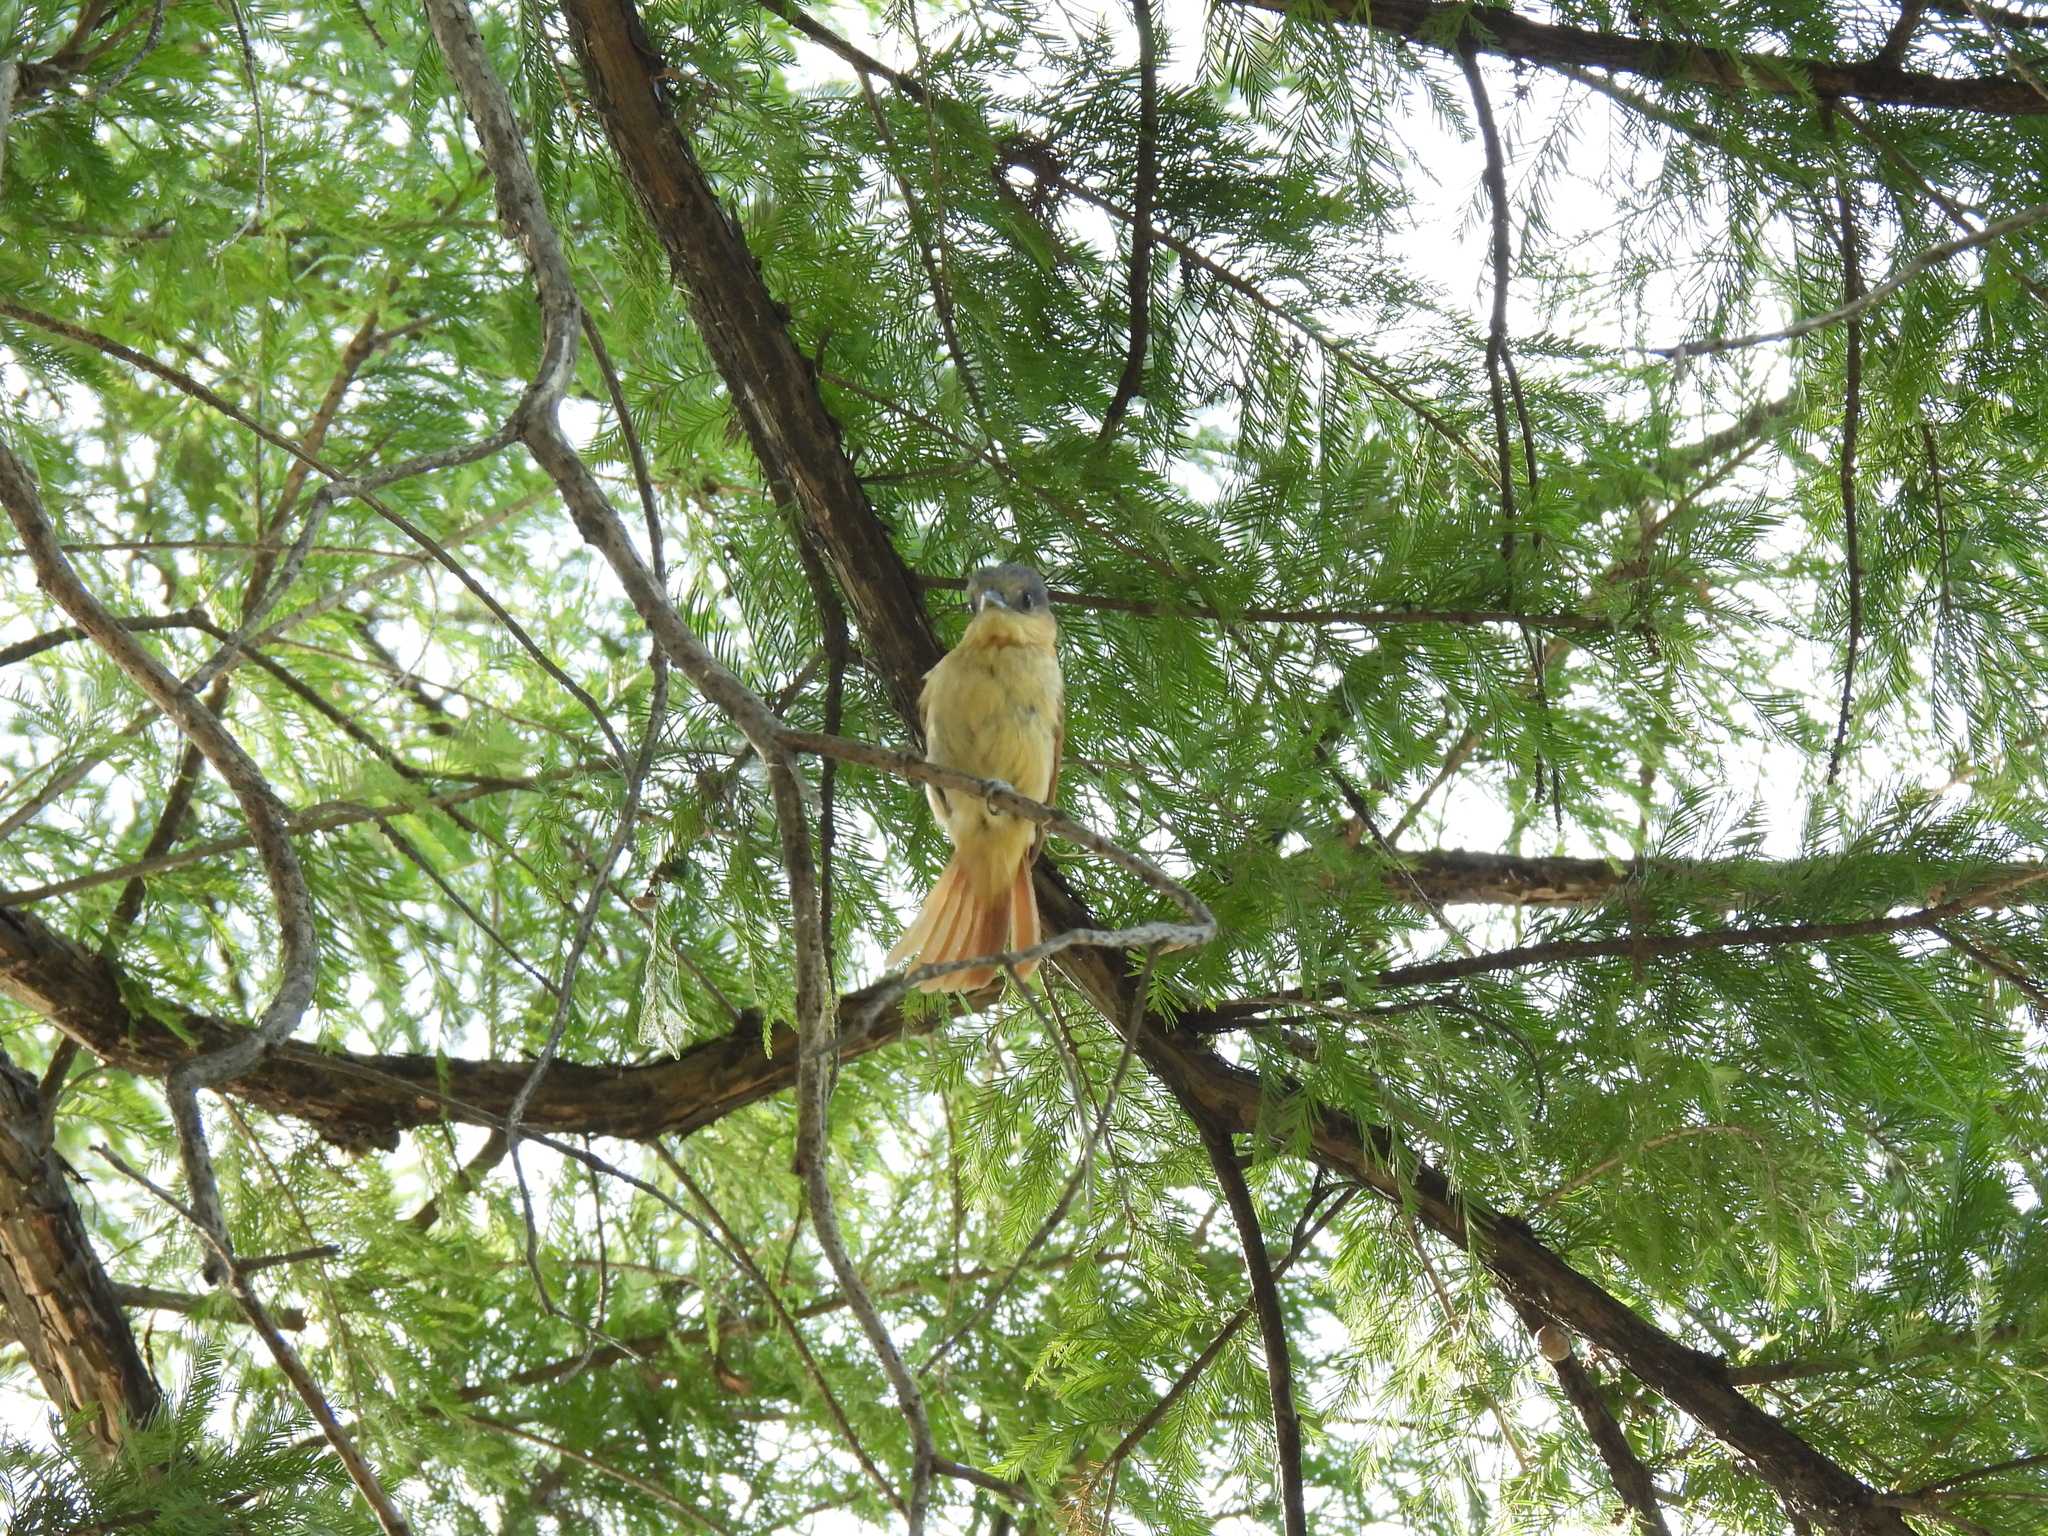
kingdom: Animalia
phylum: Chordata
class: Aves
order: Passeriformes
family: Cotingidae
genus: Pachyramphus
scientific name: Pachyramphus aglaiae
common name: Rose-throated becard
